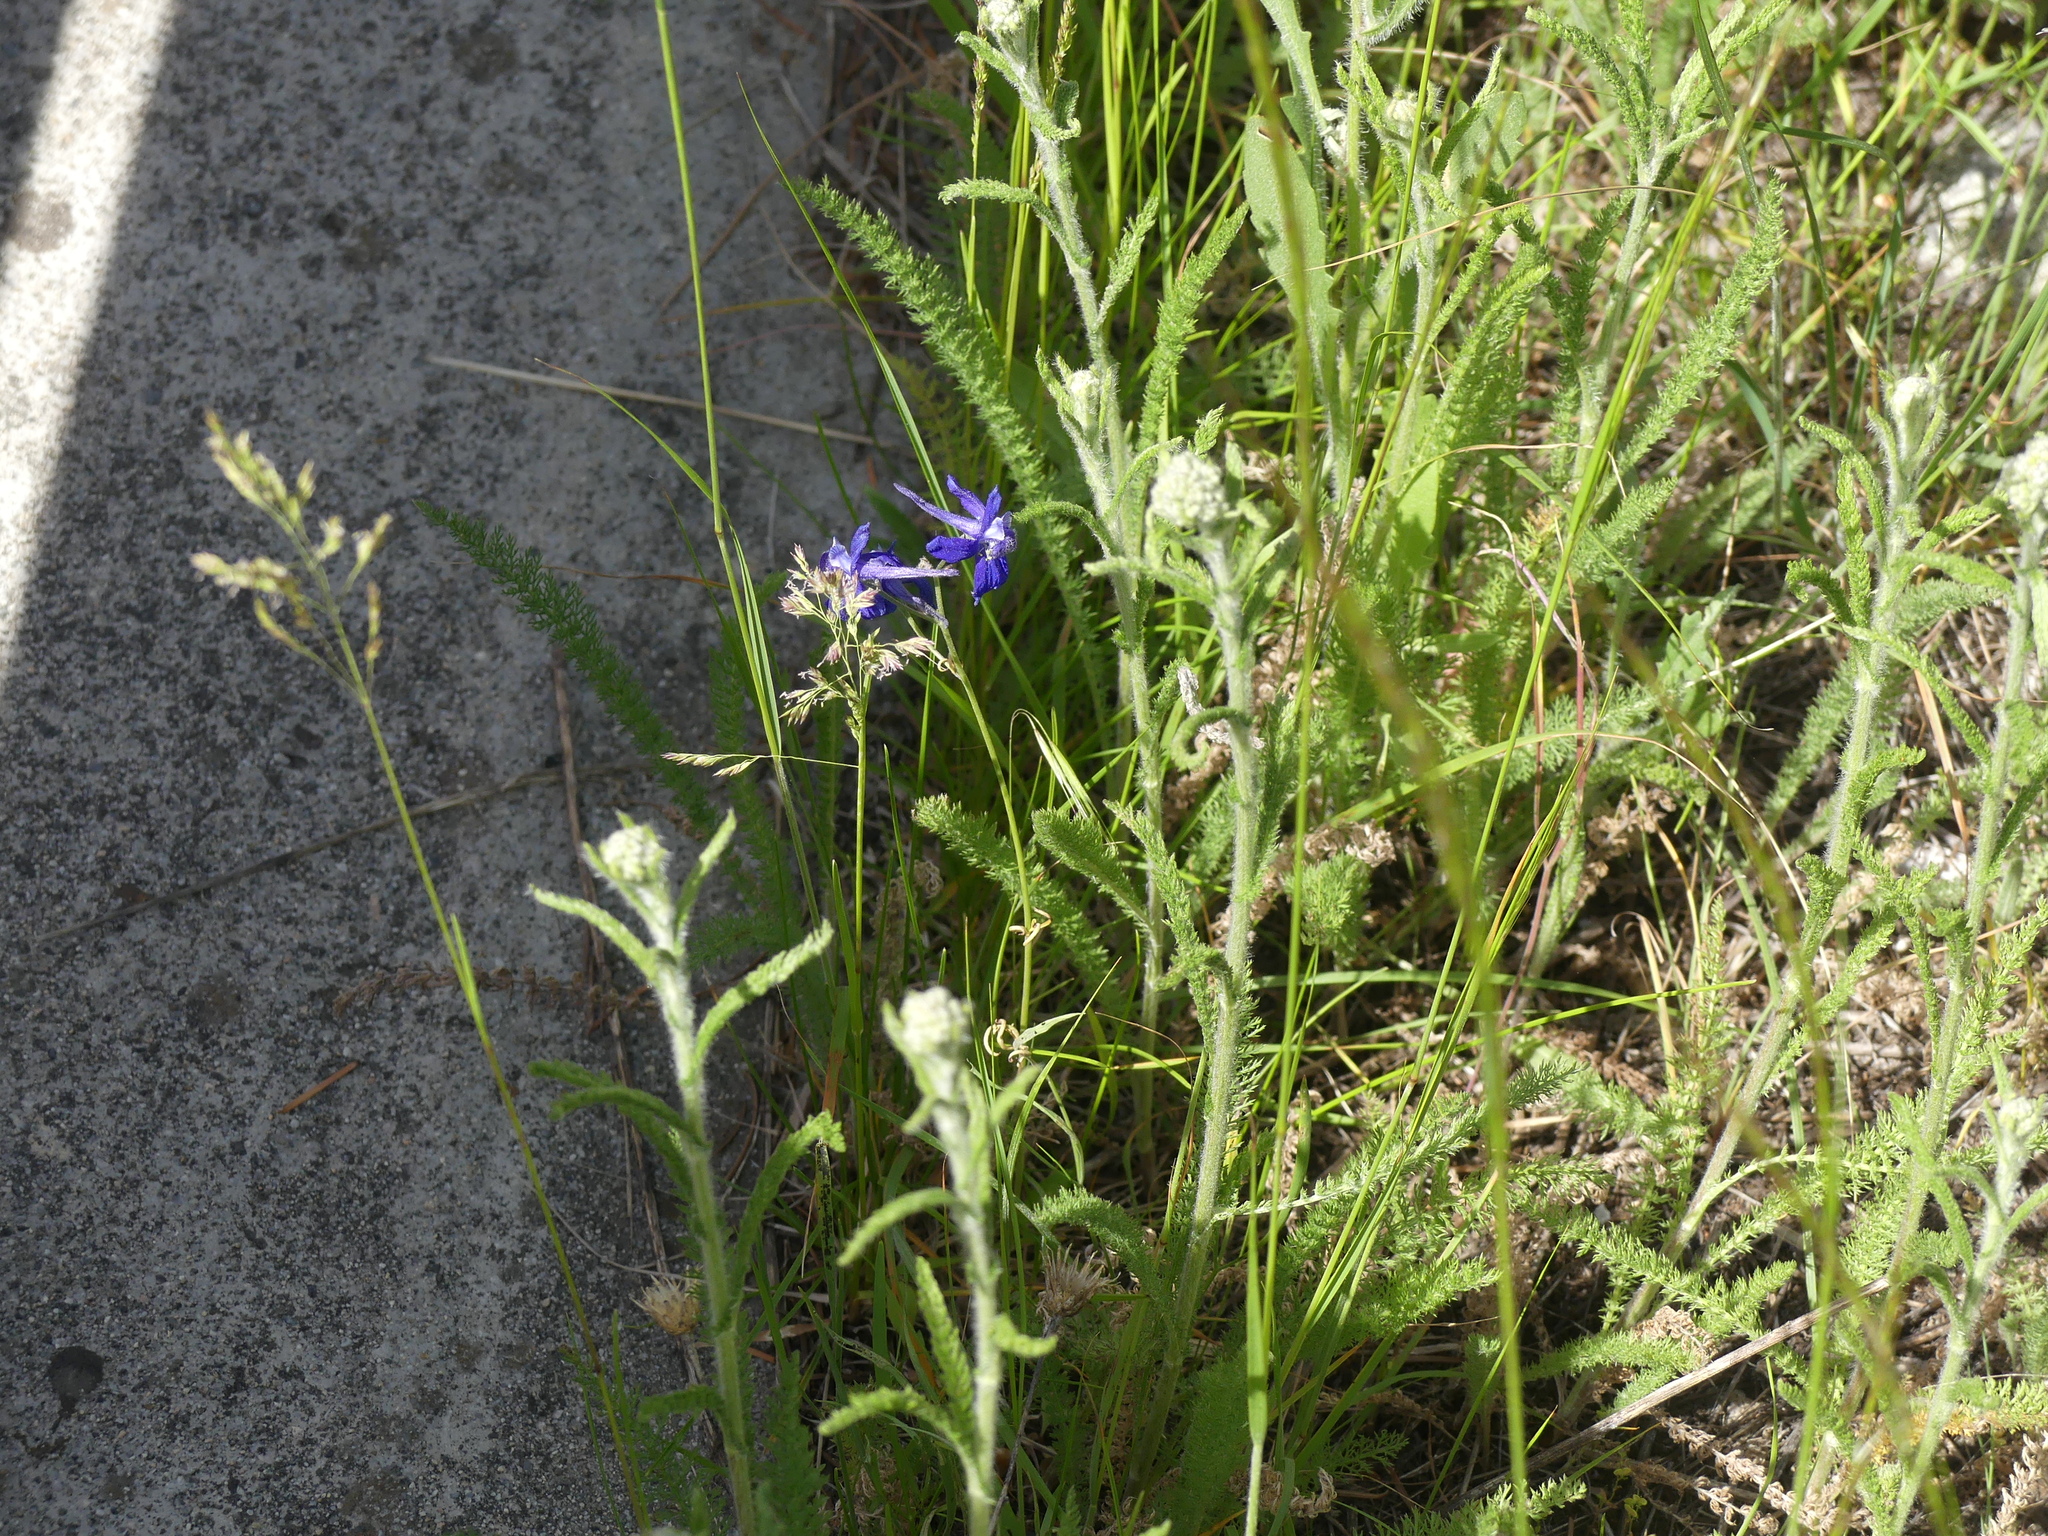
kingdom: Plantae
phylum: Tracheophyta
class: Magnoliopsida
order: Ranunculales
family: Ranunculaceae
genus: Delphinium
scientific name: Delphinium nuttallianum
